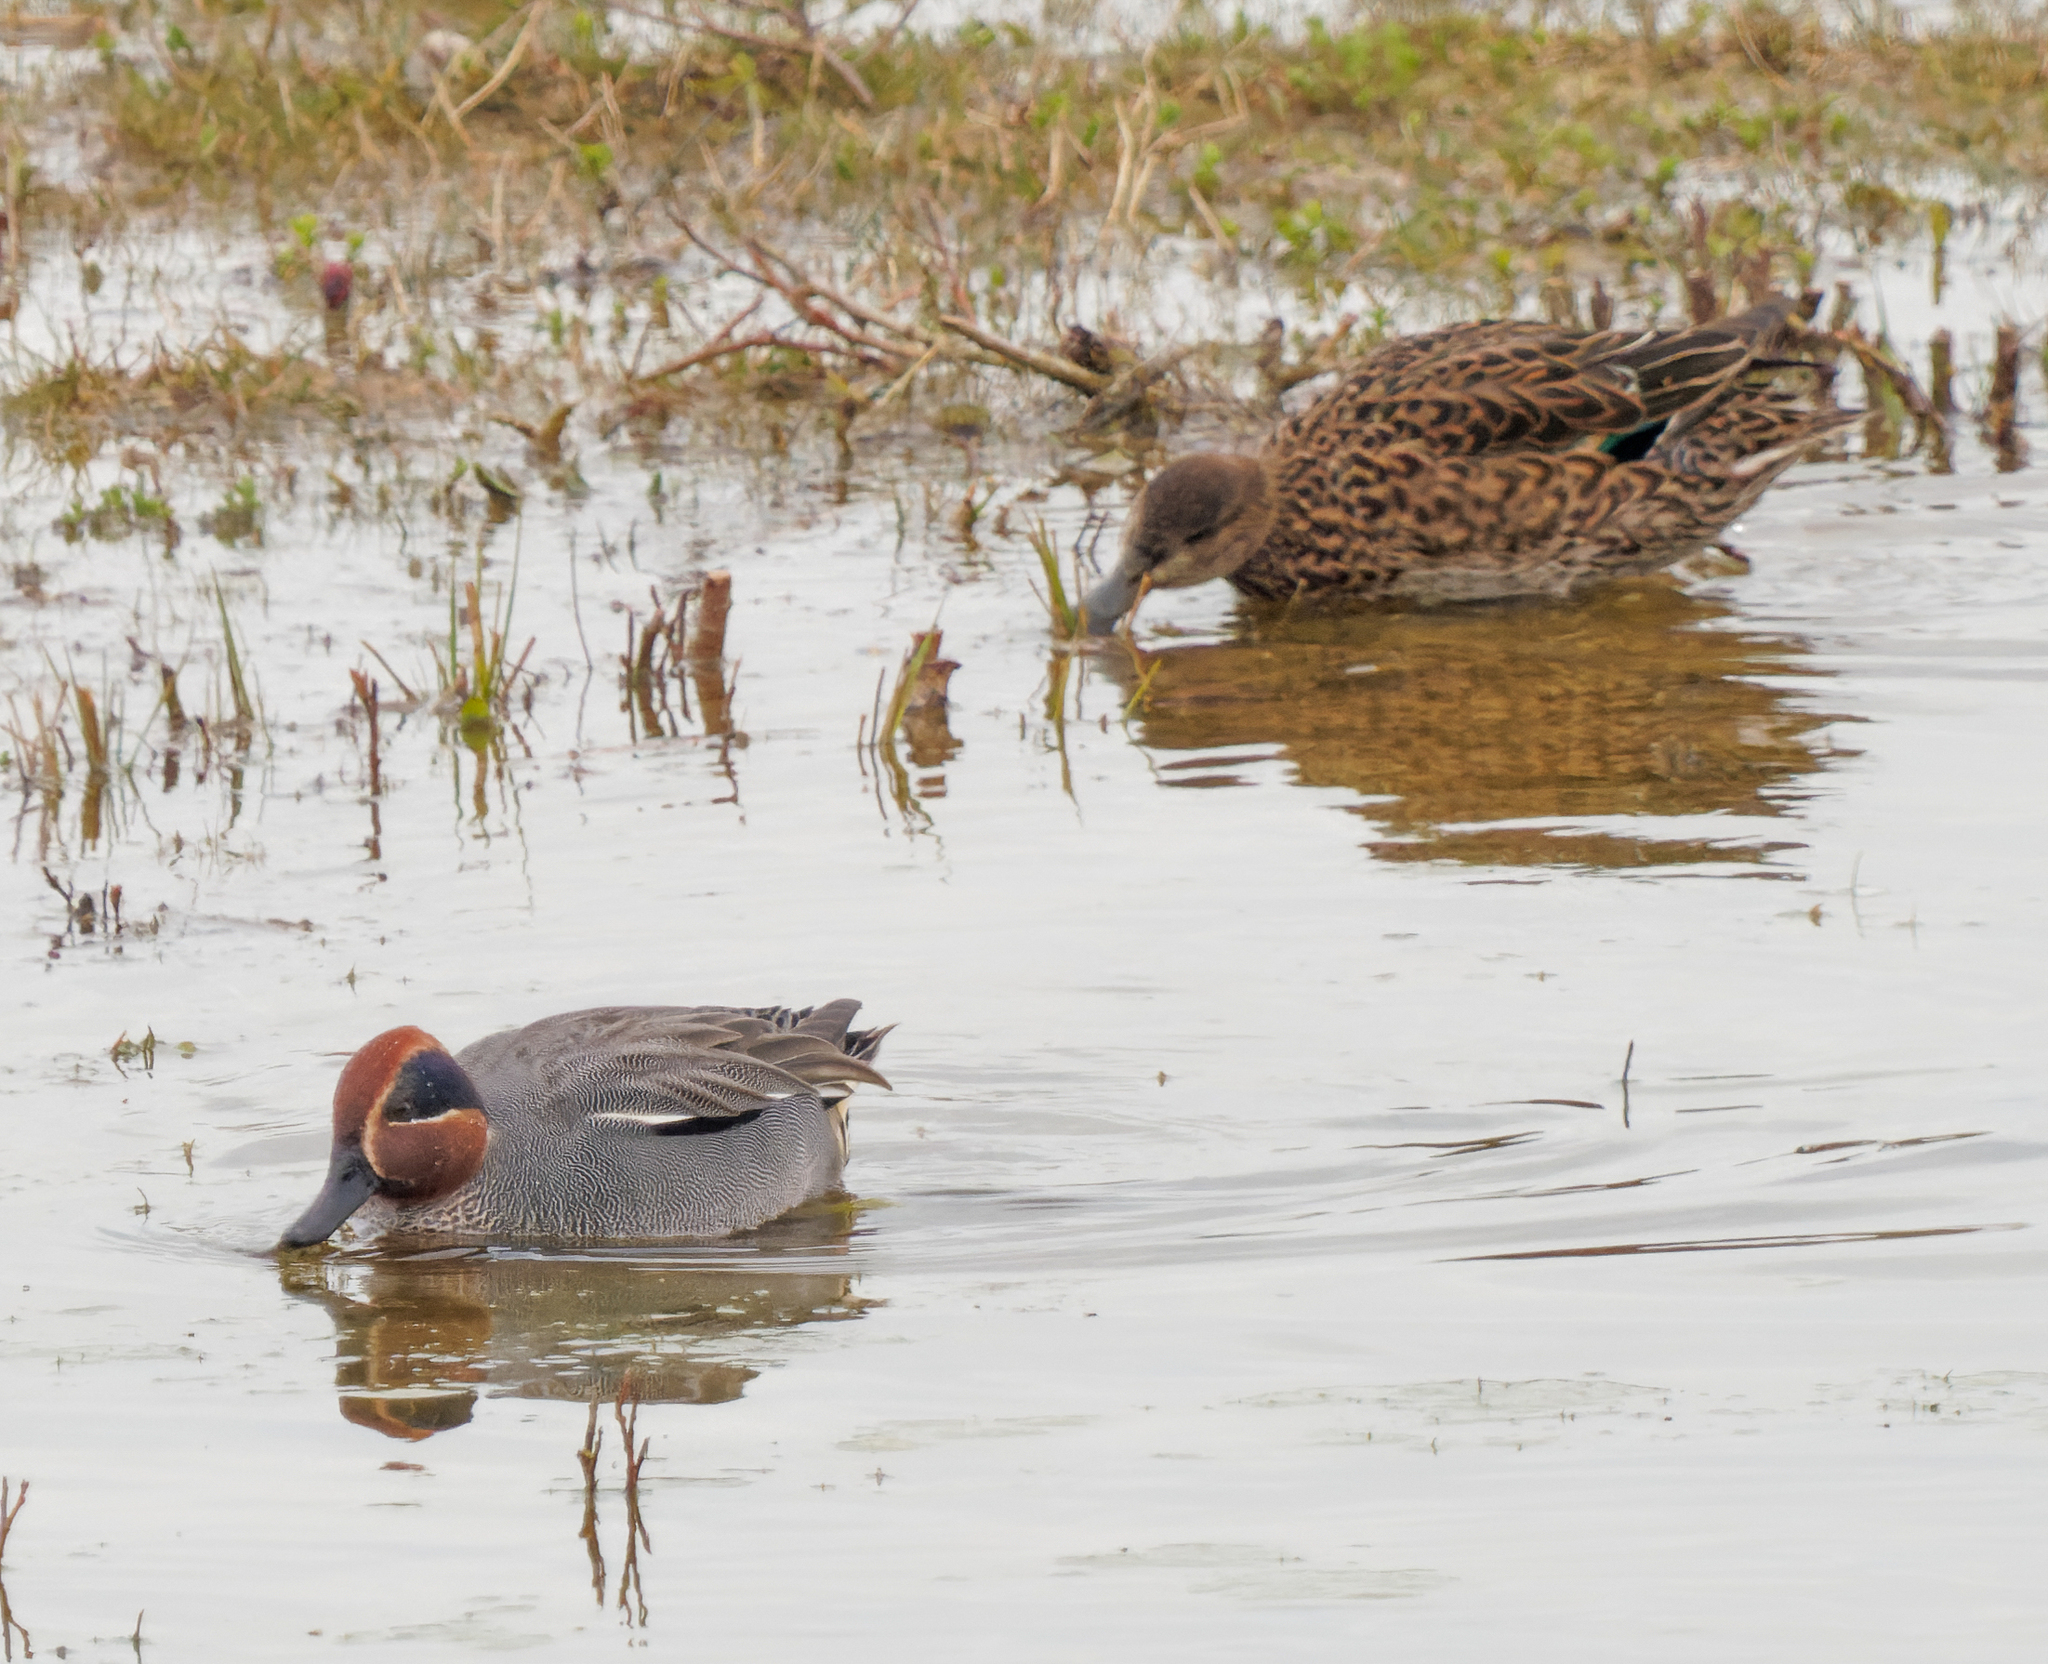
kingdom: Animalia
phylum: Chordata
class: Aves
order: Anseriformes
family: Anatidae
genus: Anas
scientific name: Anas crecca
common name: Eurasian teal
